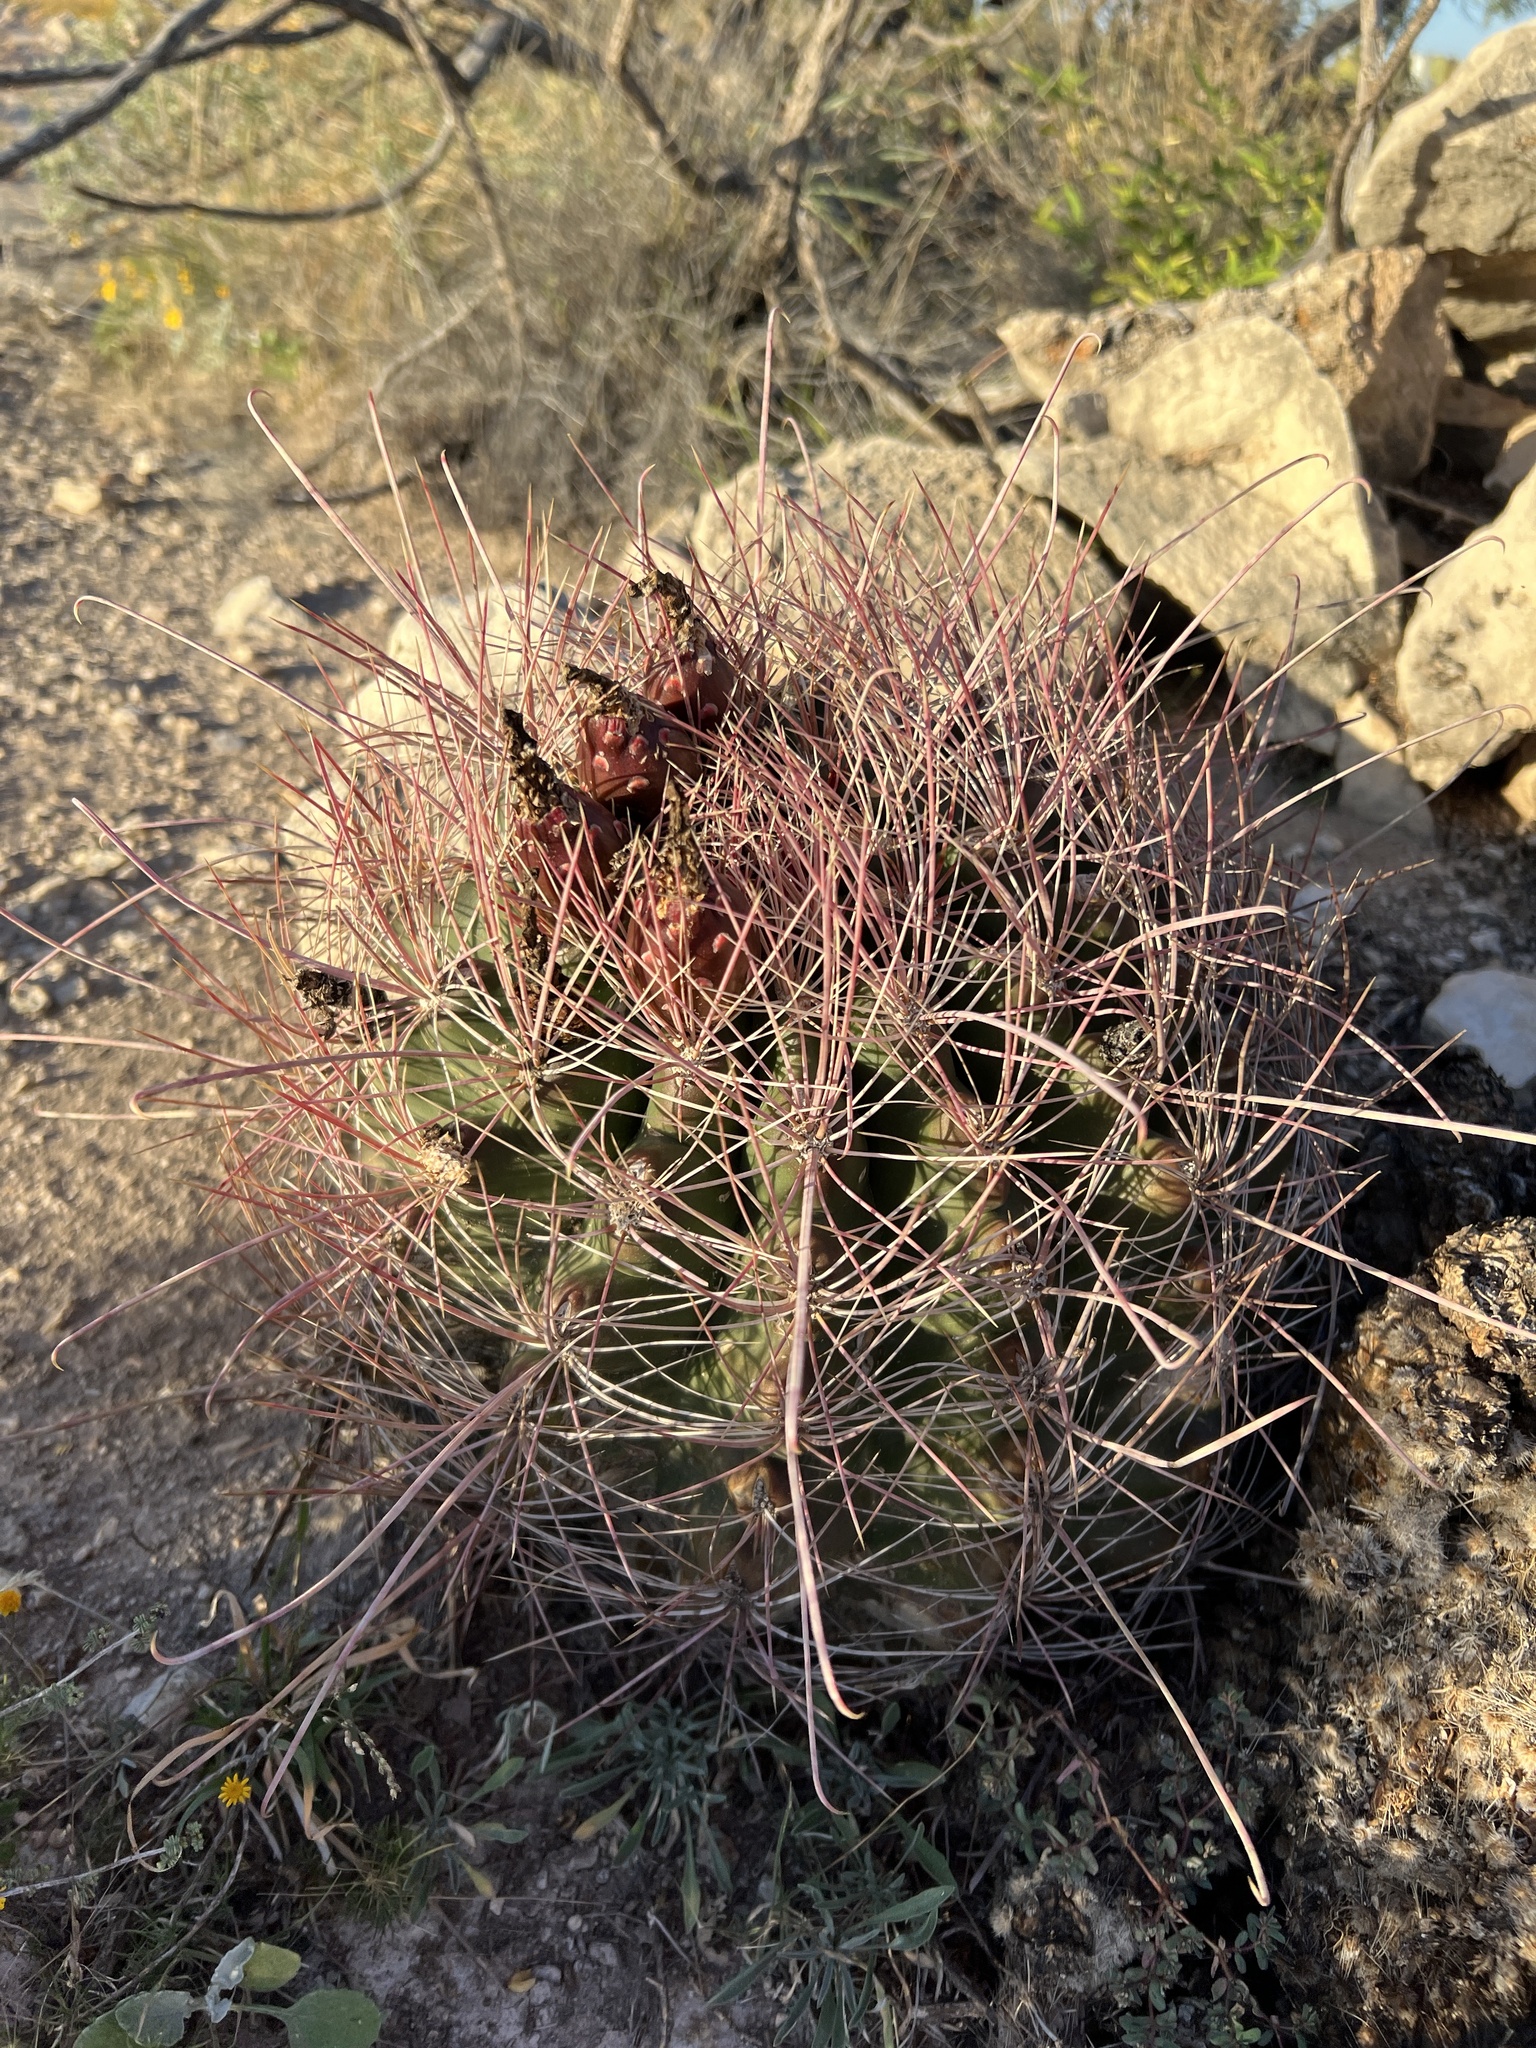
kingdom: Plantae
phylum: Tracheophyta
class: Magnoliopsida
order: Caryophyllales
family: Cactaceae
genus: Bisnaga
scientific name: Bisnaga hamatacantha
